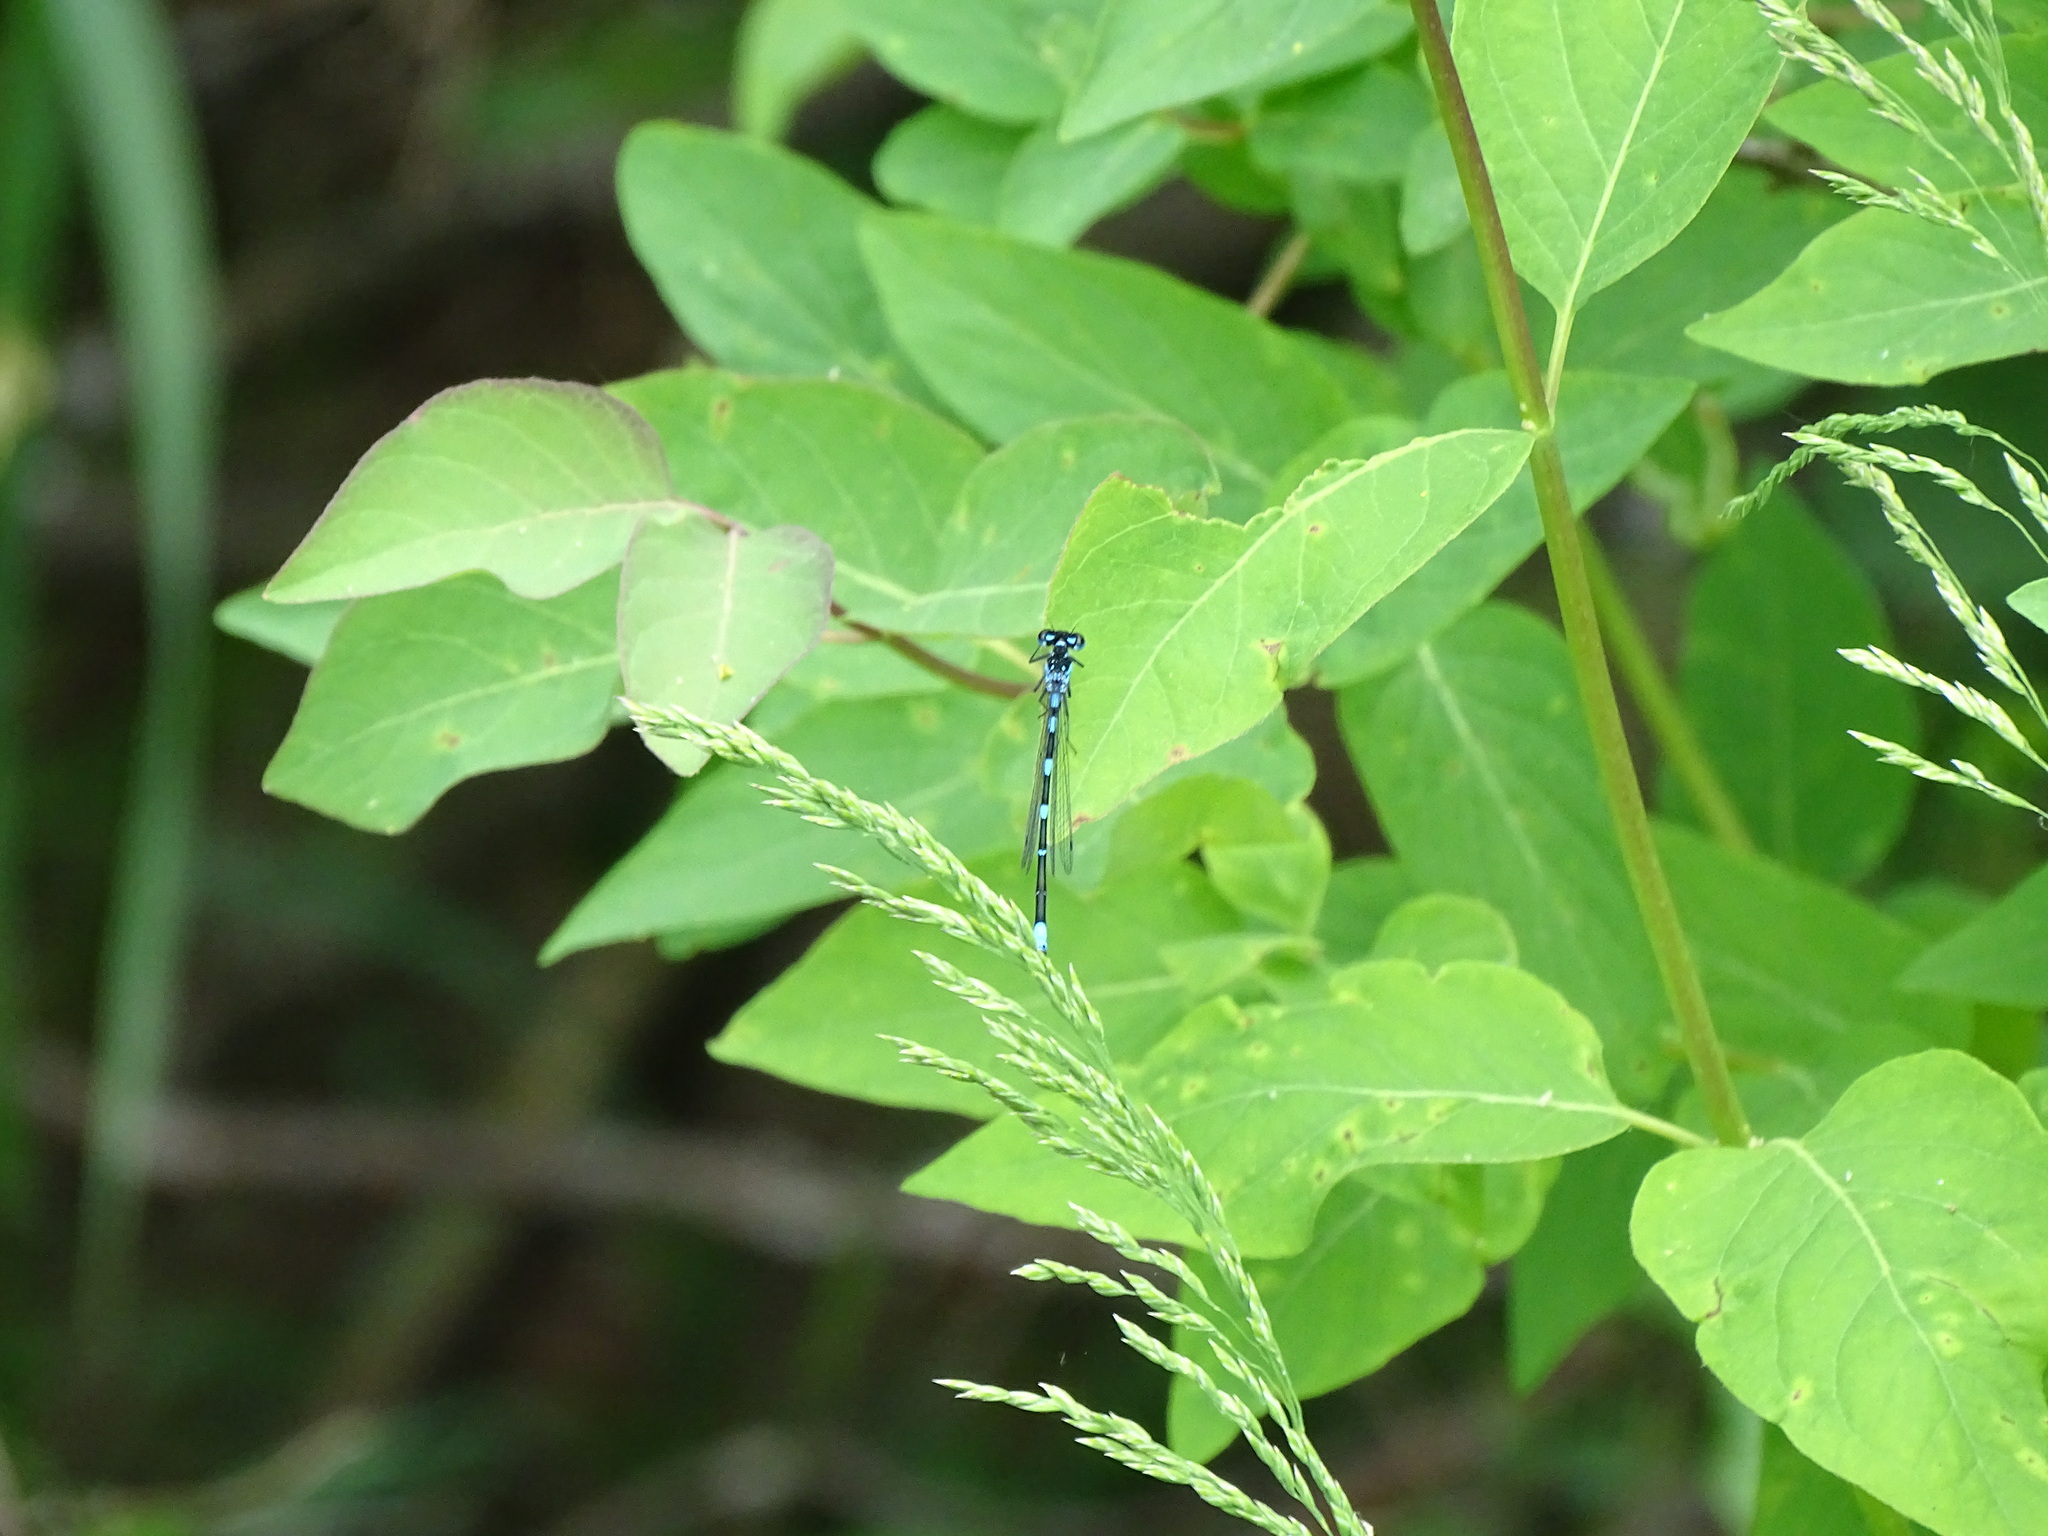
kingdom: Animalia
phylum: Arthropoda
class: Insecta
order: Odonata
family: Coenagrionidae
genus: Coenagrion
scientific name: Coenagrion pulchellum
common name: Variable bluet
